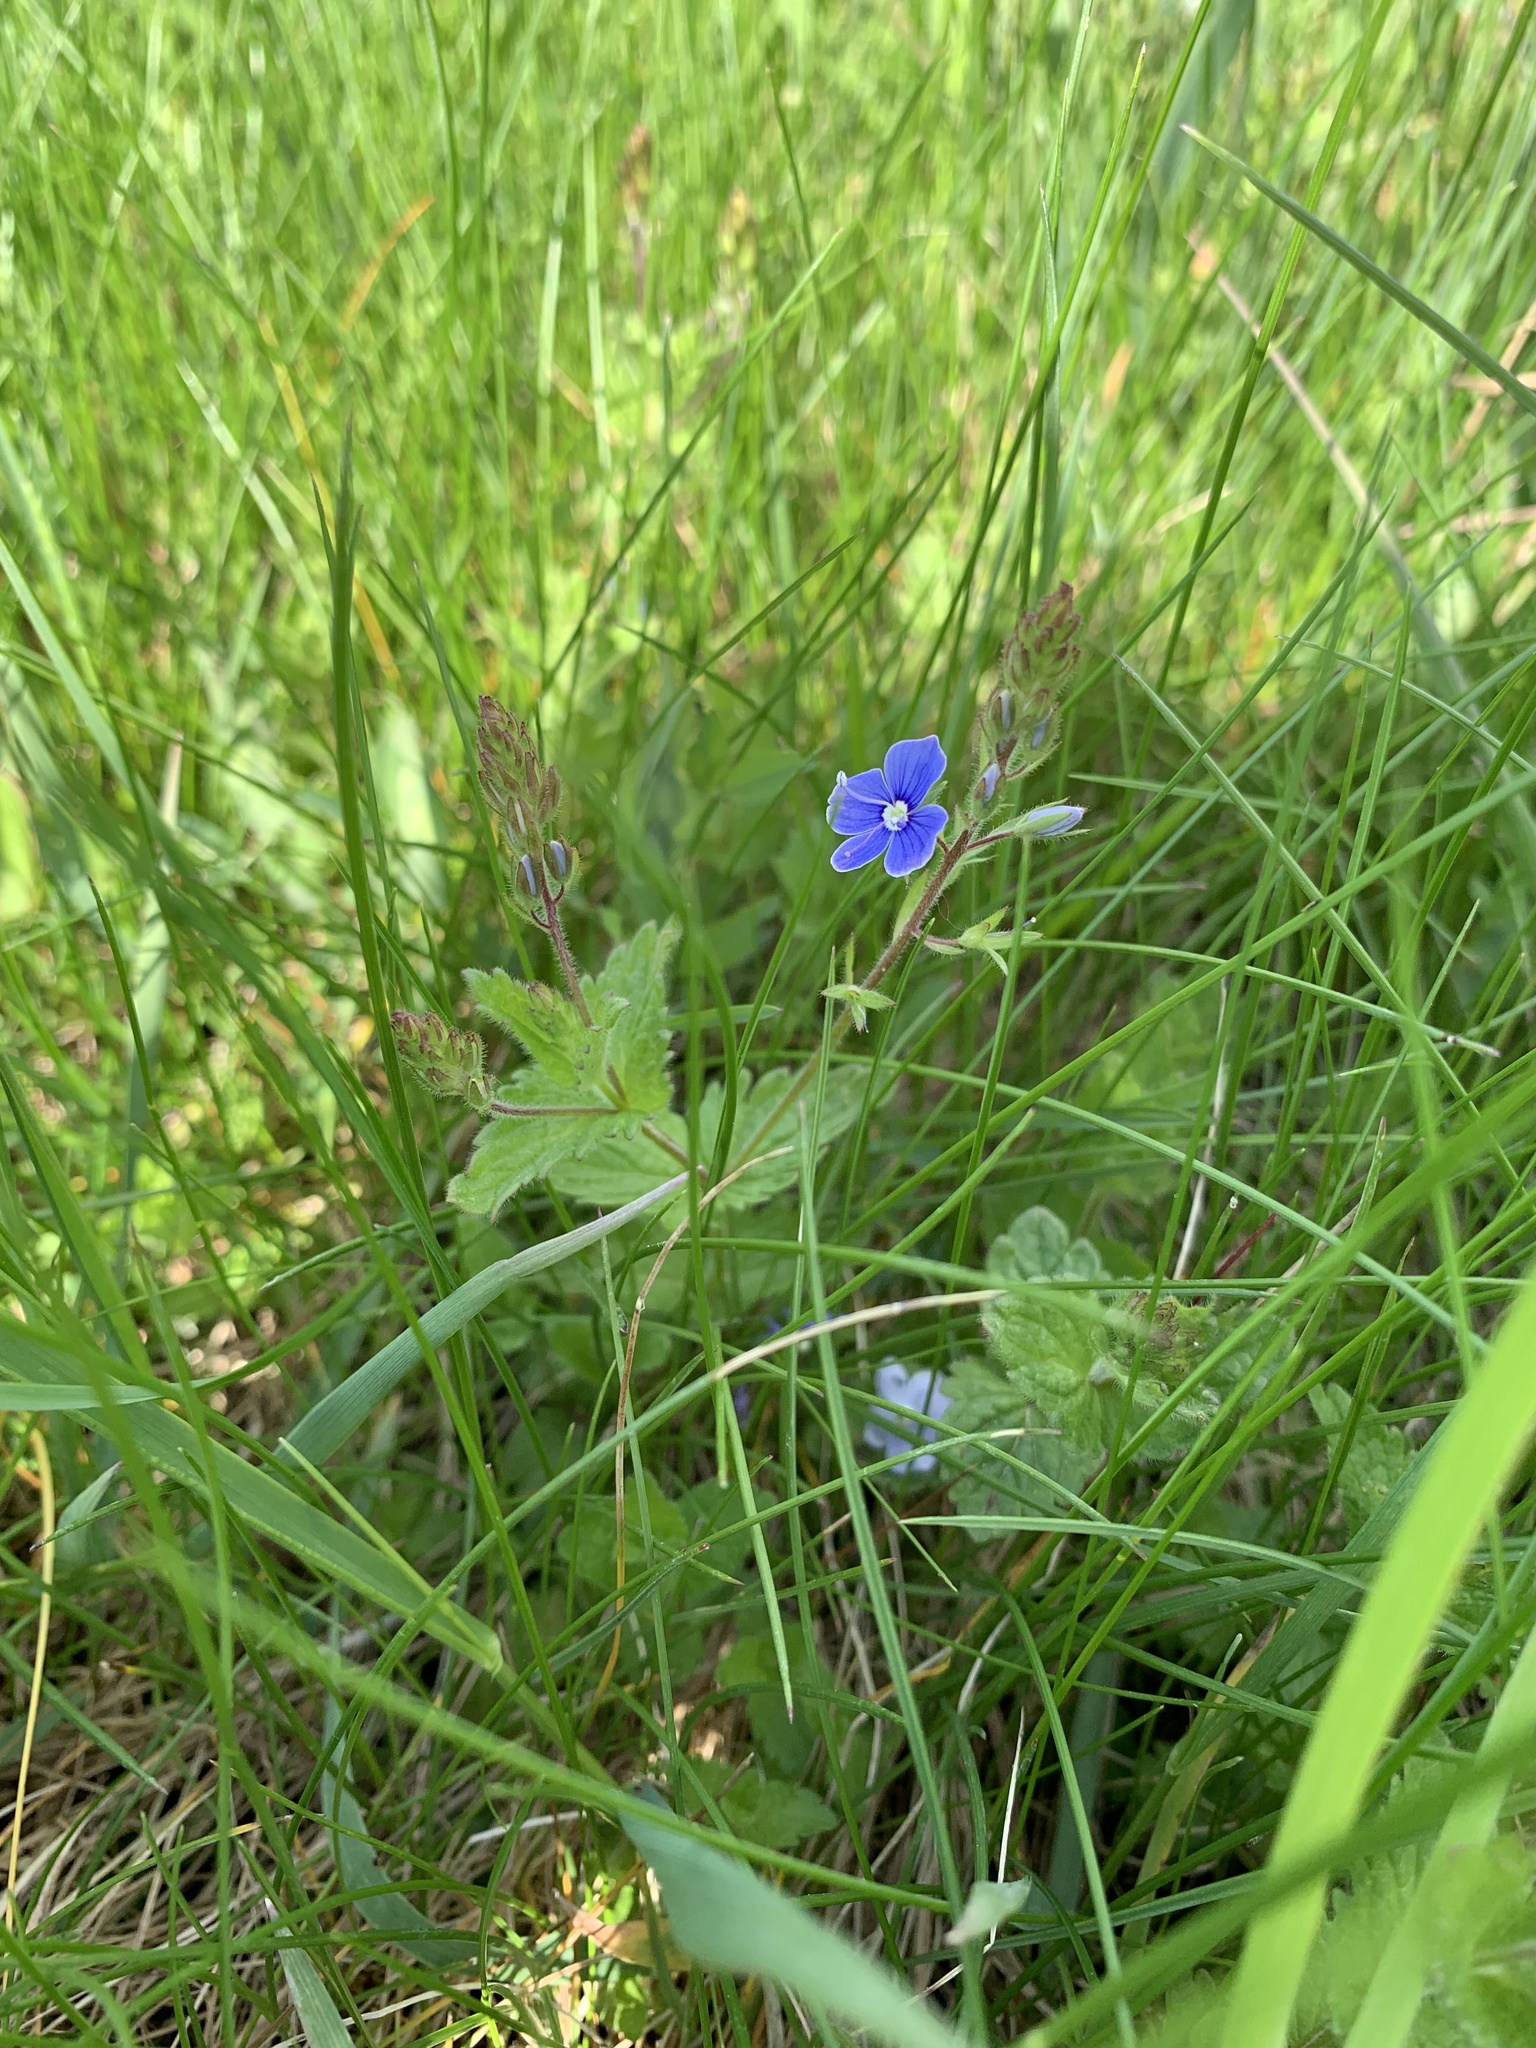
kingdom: Plantae
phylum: Tracheophyta
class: Magnoliopsida
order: Lamiales
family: Plantaginaceae
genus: Veronica
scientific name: Veronica chamaedrys
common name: Germander speedwell
